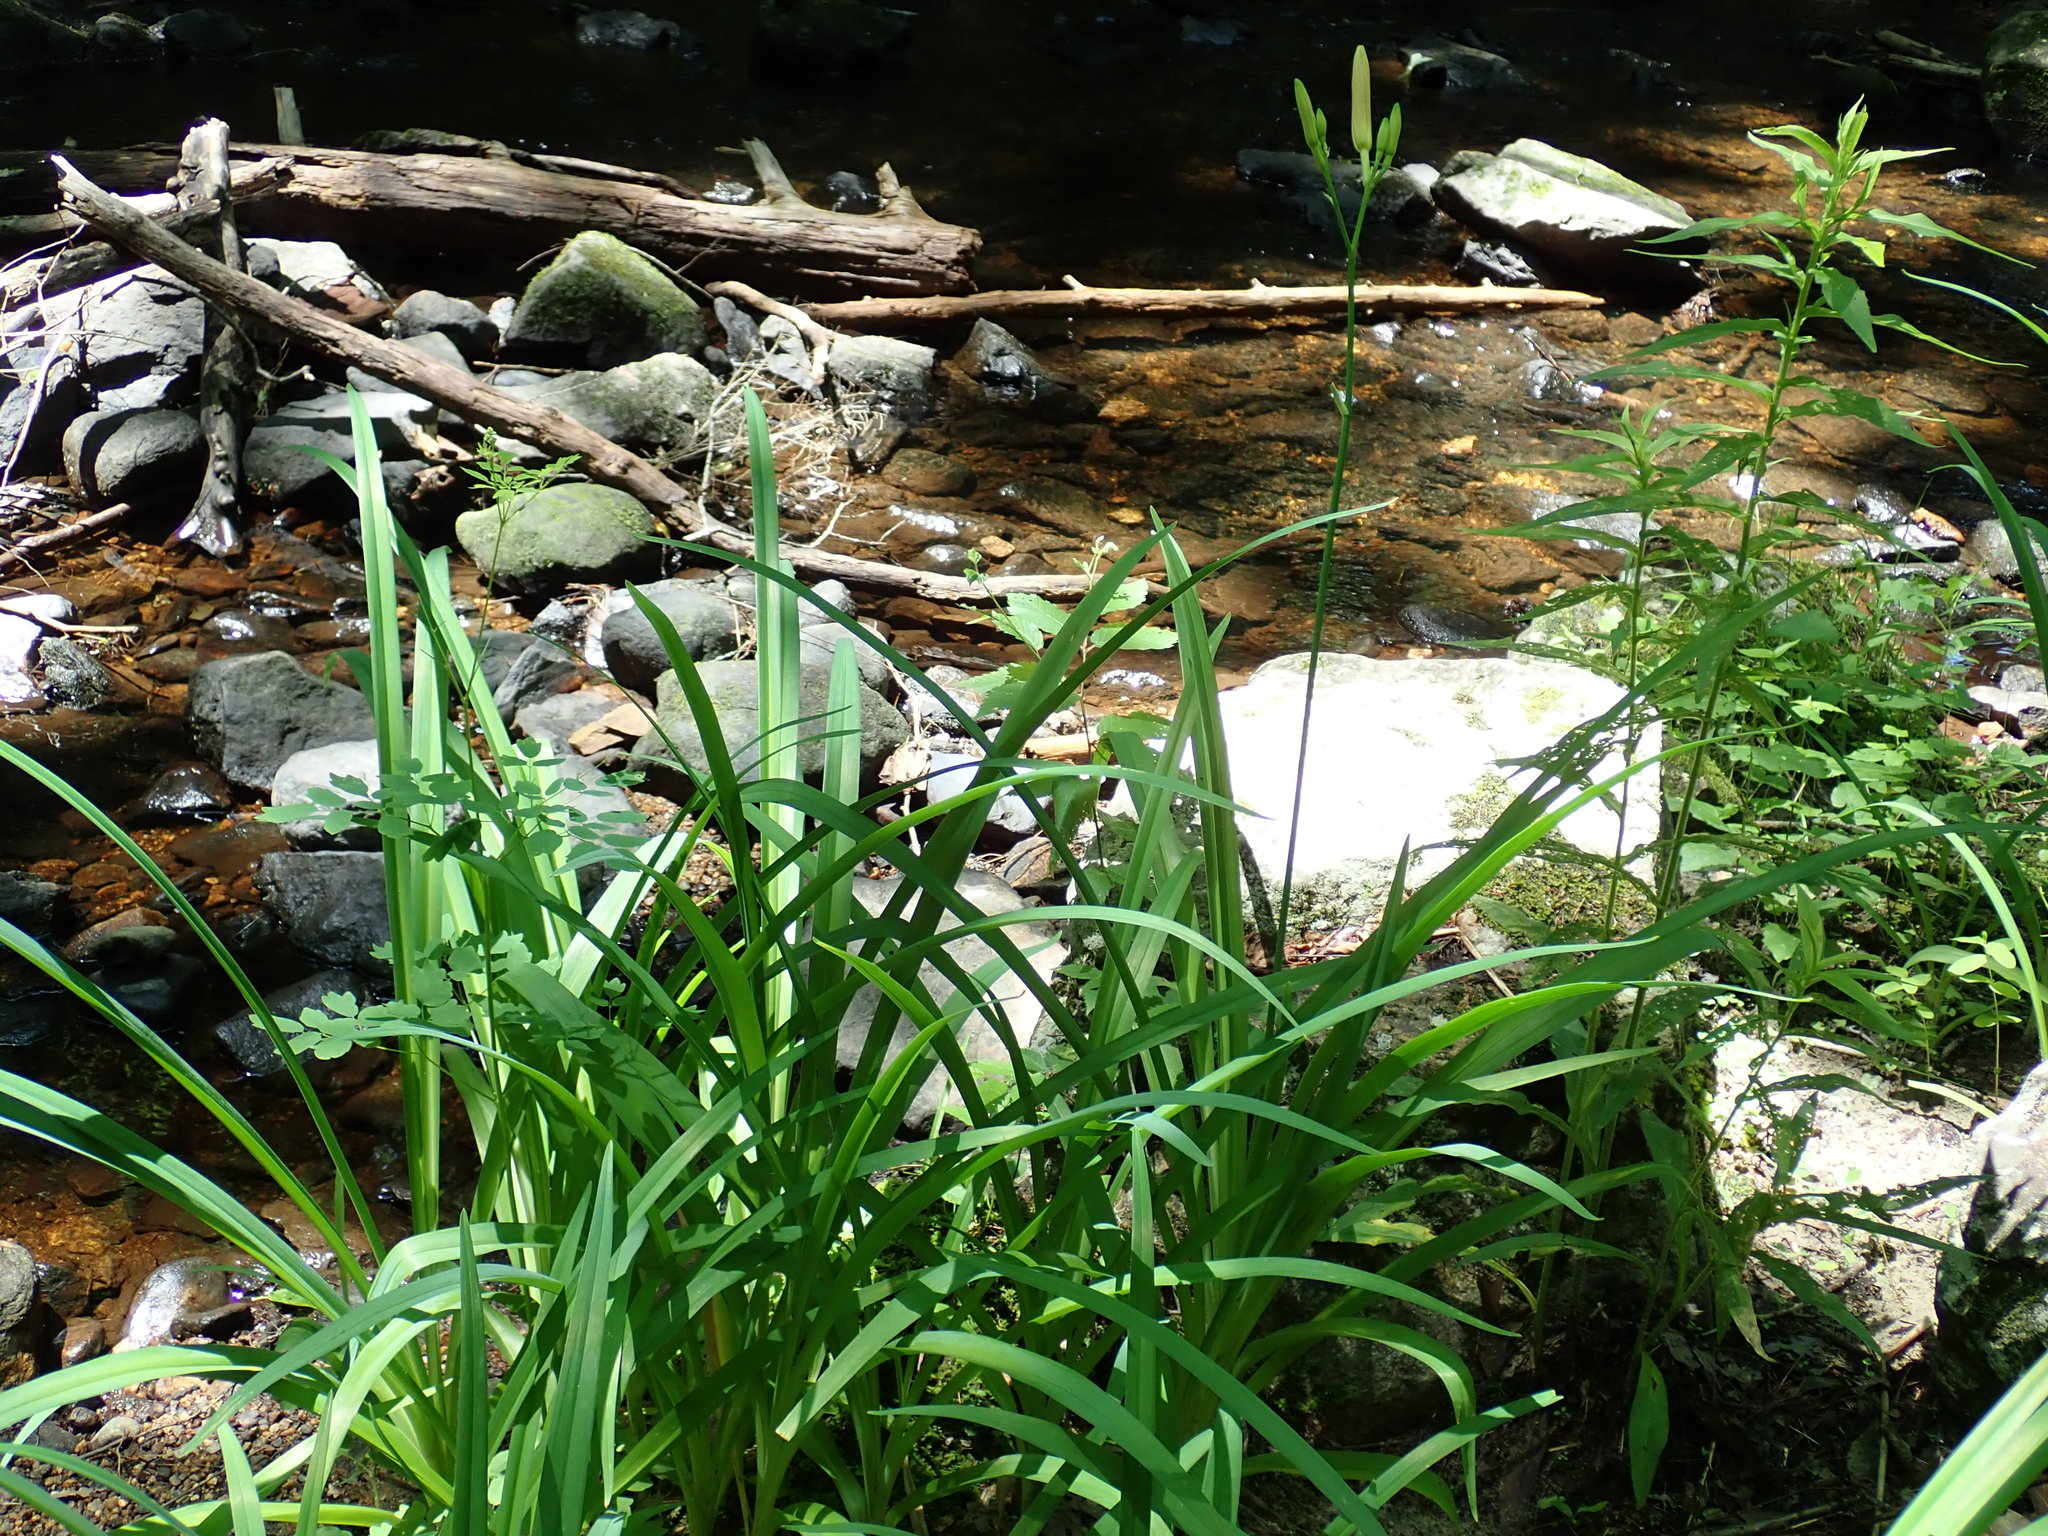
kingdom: Plantae
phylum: Tracheophyta
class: Liliopsida
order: Asparagales
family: Asphodelaceae
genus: Hemerocallis
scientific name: Hemerocallis fulva
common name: Orange day-lily
